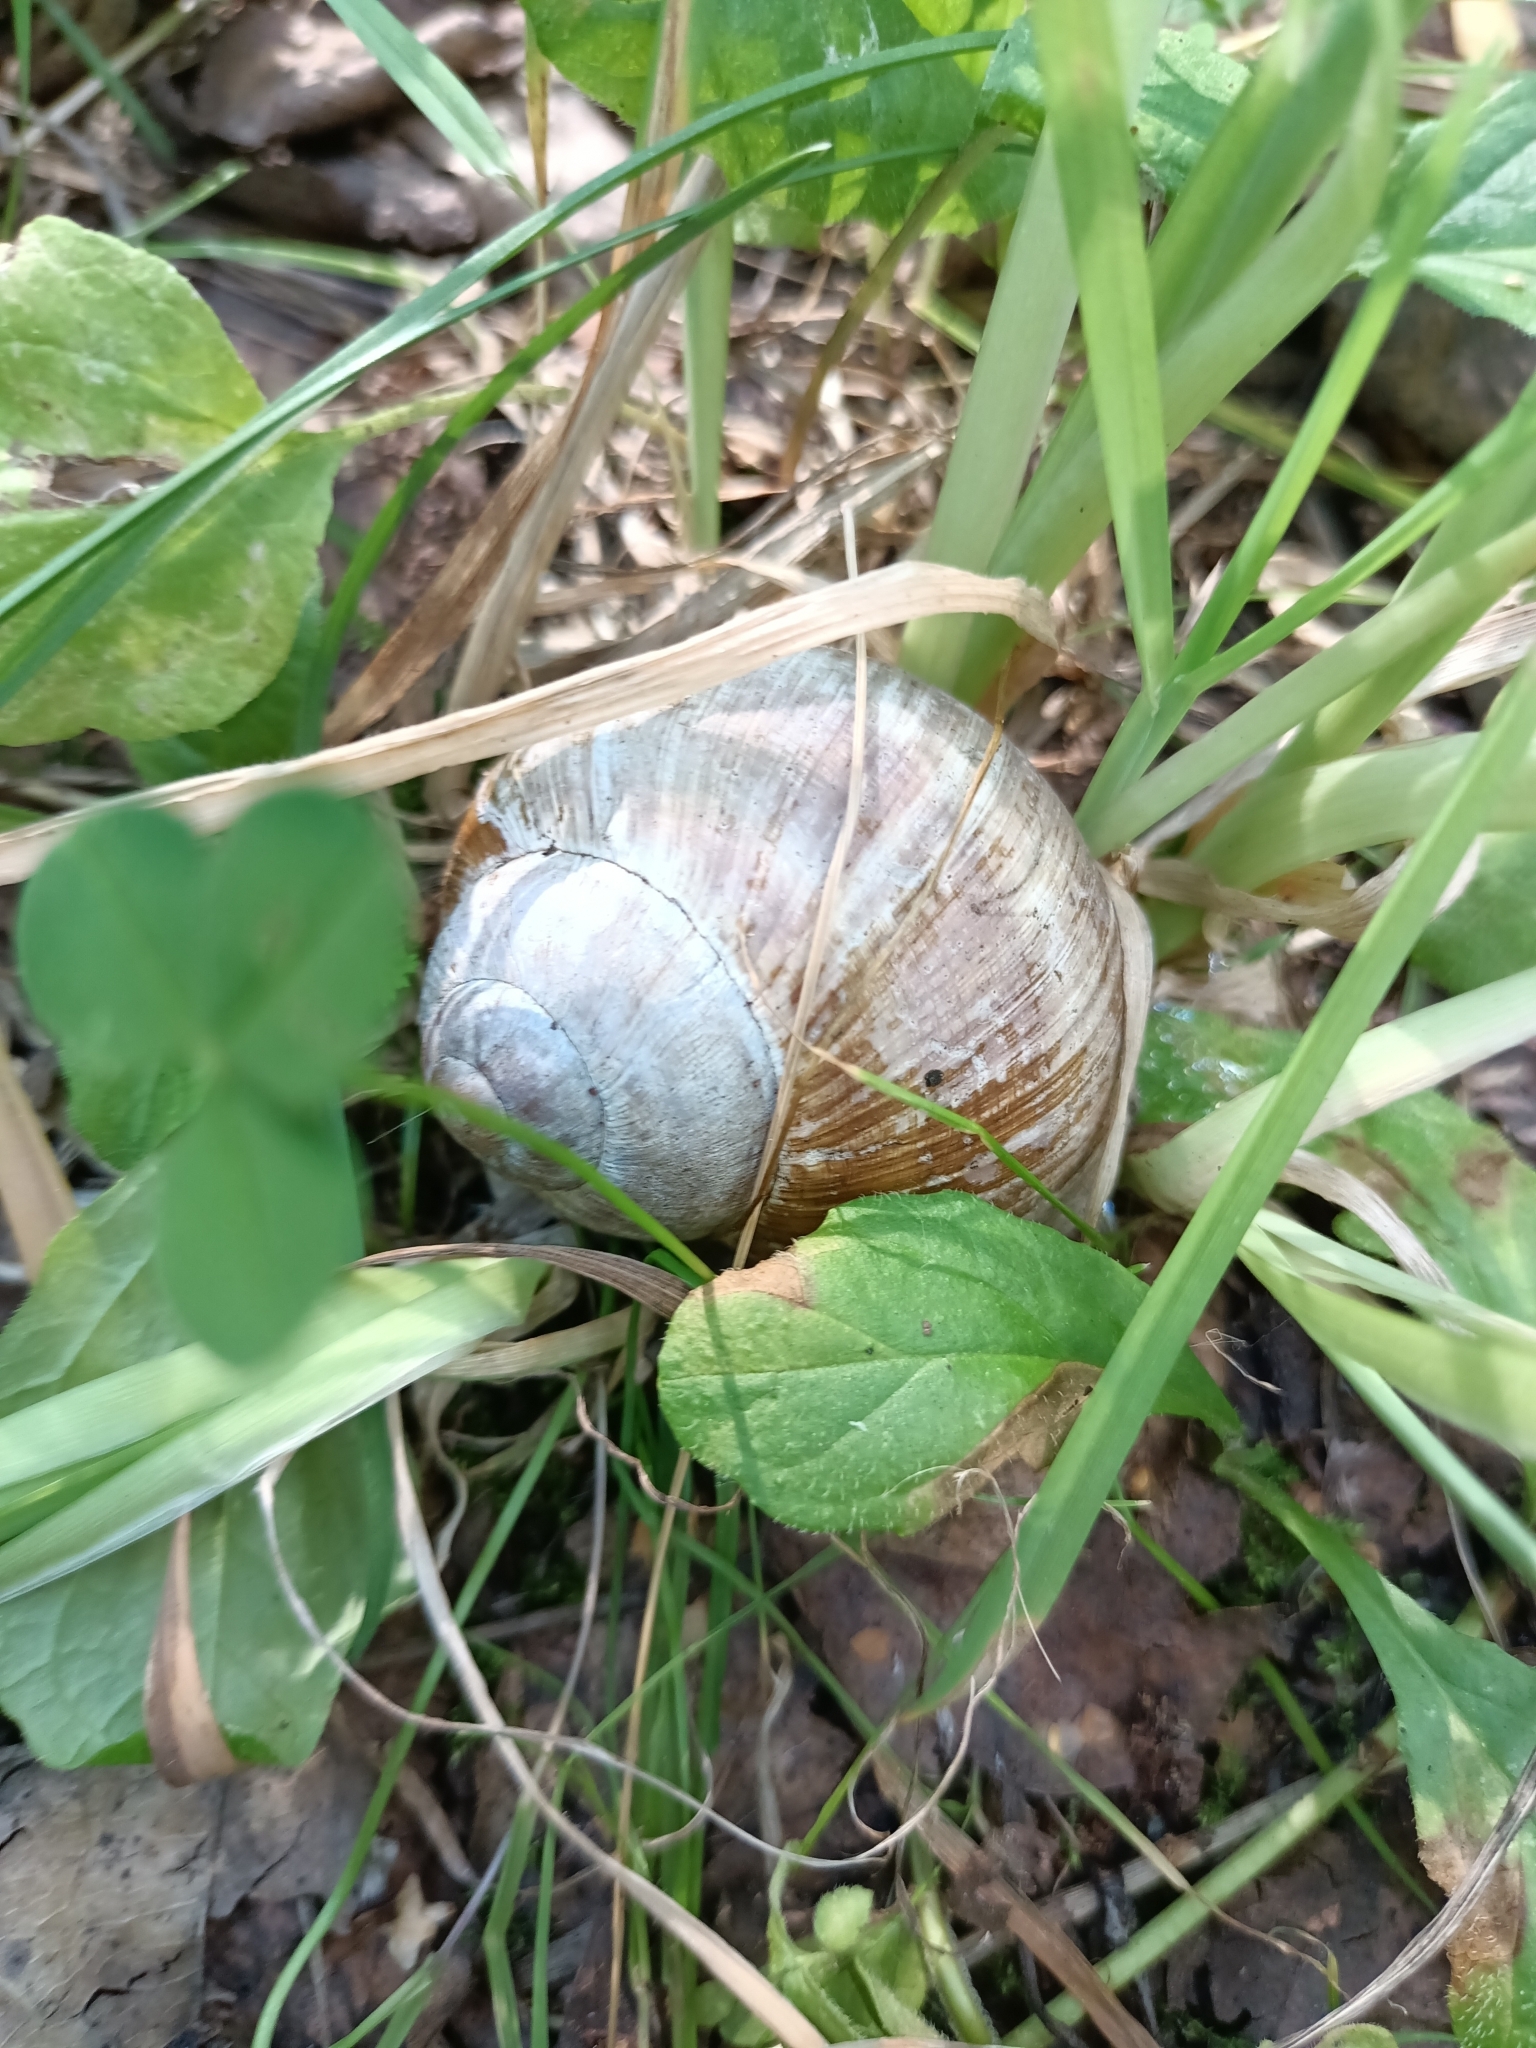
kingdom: Animalia
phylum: Mollusca
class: Gastropoda
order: Stylommatophora
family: Helicidae
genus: Helix
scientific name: Helix pomatia
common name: Roman snail
